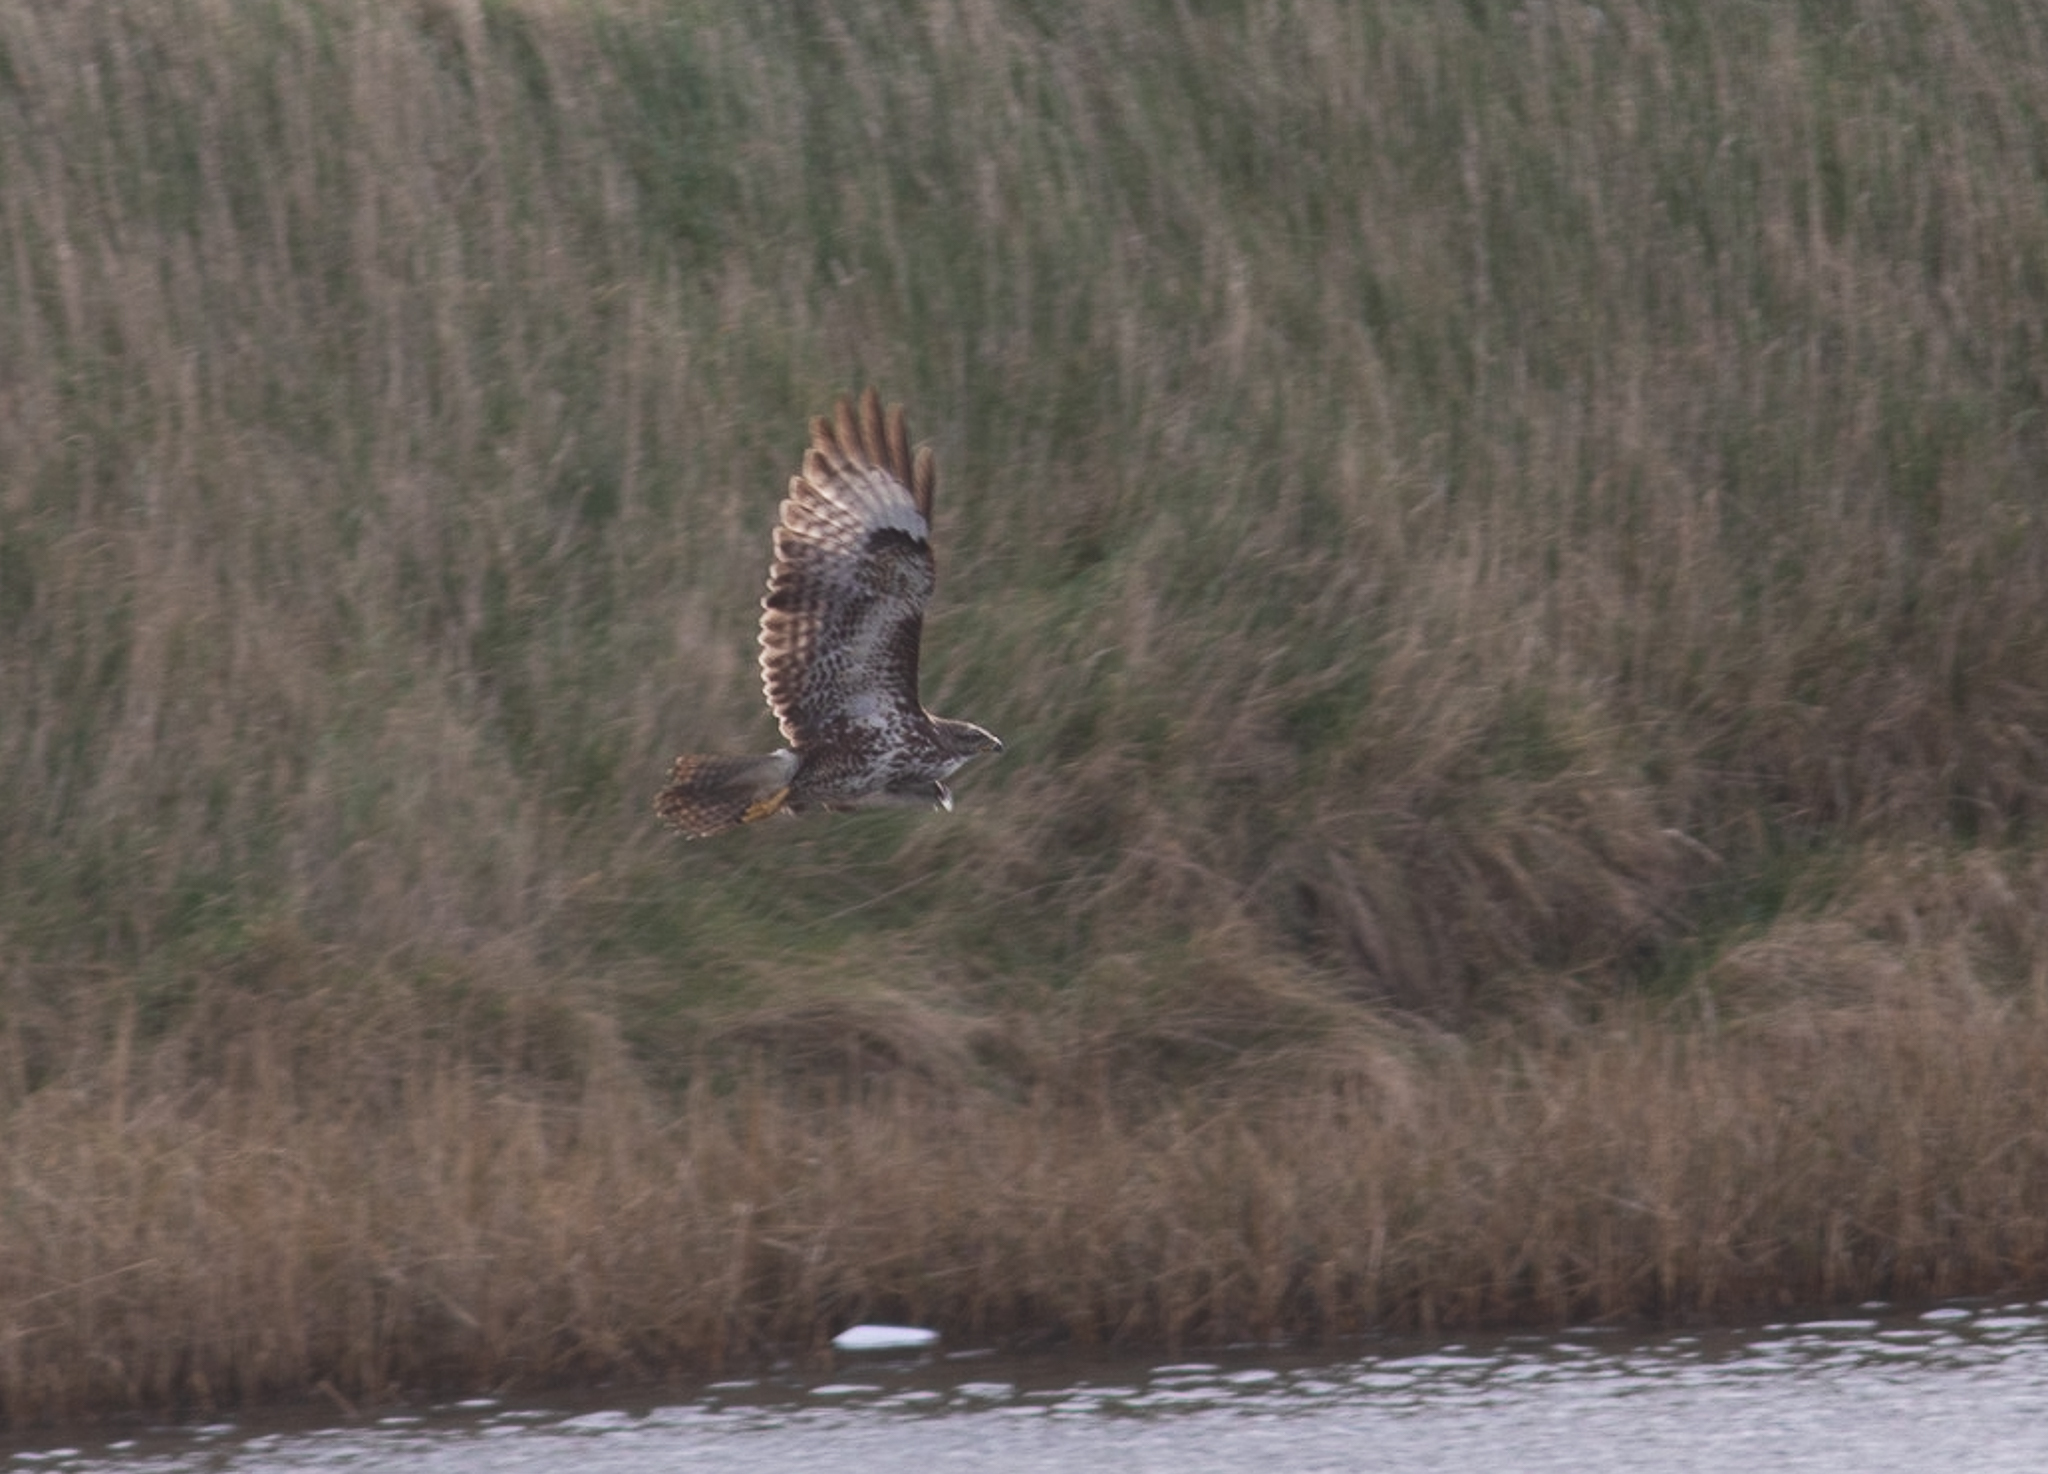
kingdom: Animalia
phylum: Chordata
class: Aves
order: Accipitriformes
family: Accipitridae
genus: Buteo
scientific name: Buteo buteo
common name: Common buzzard
